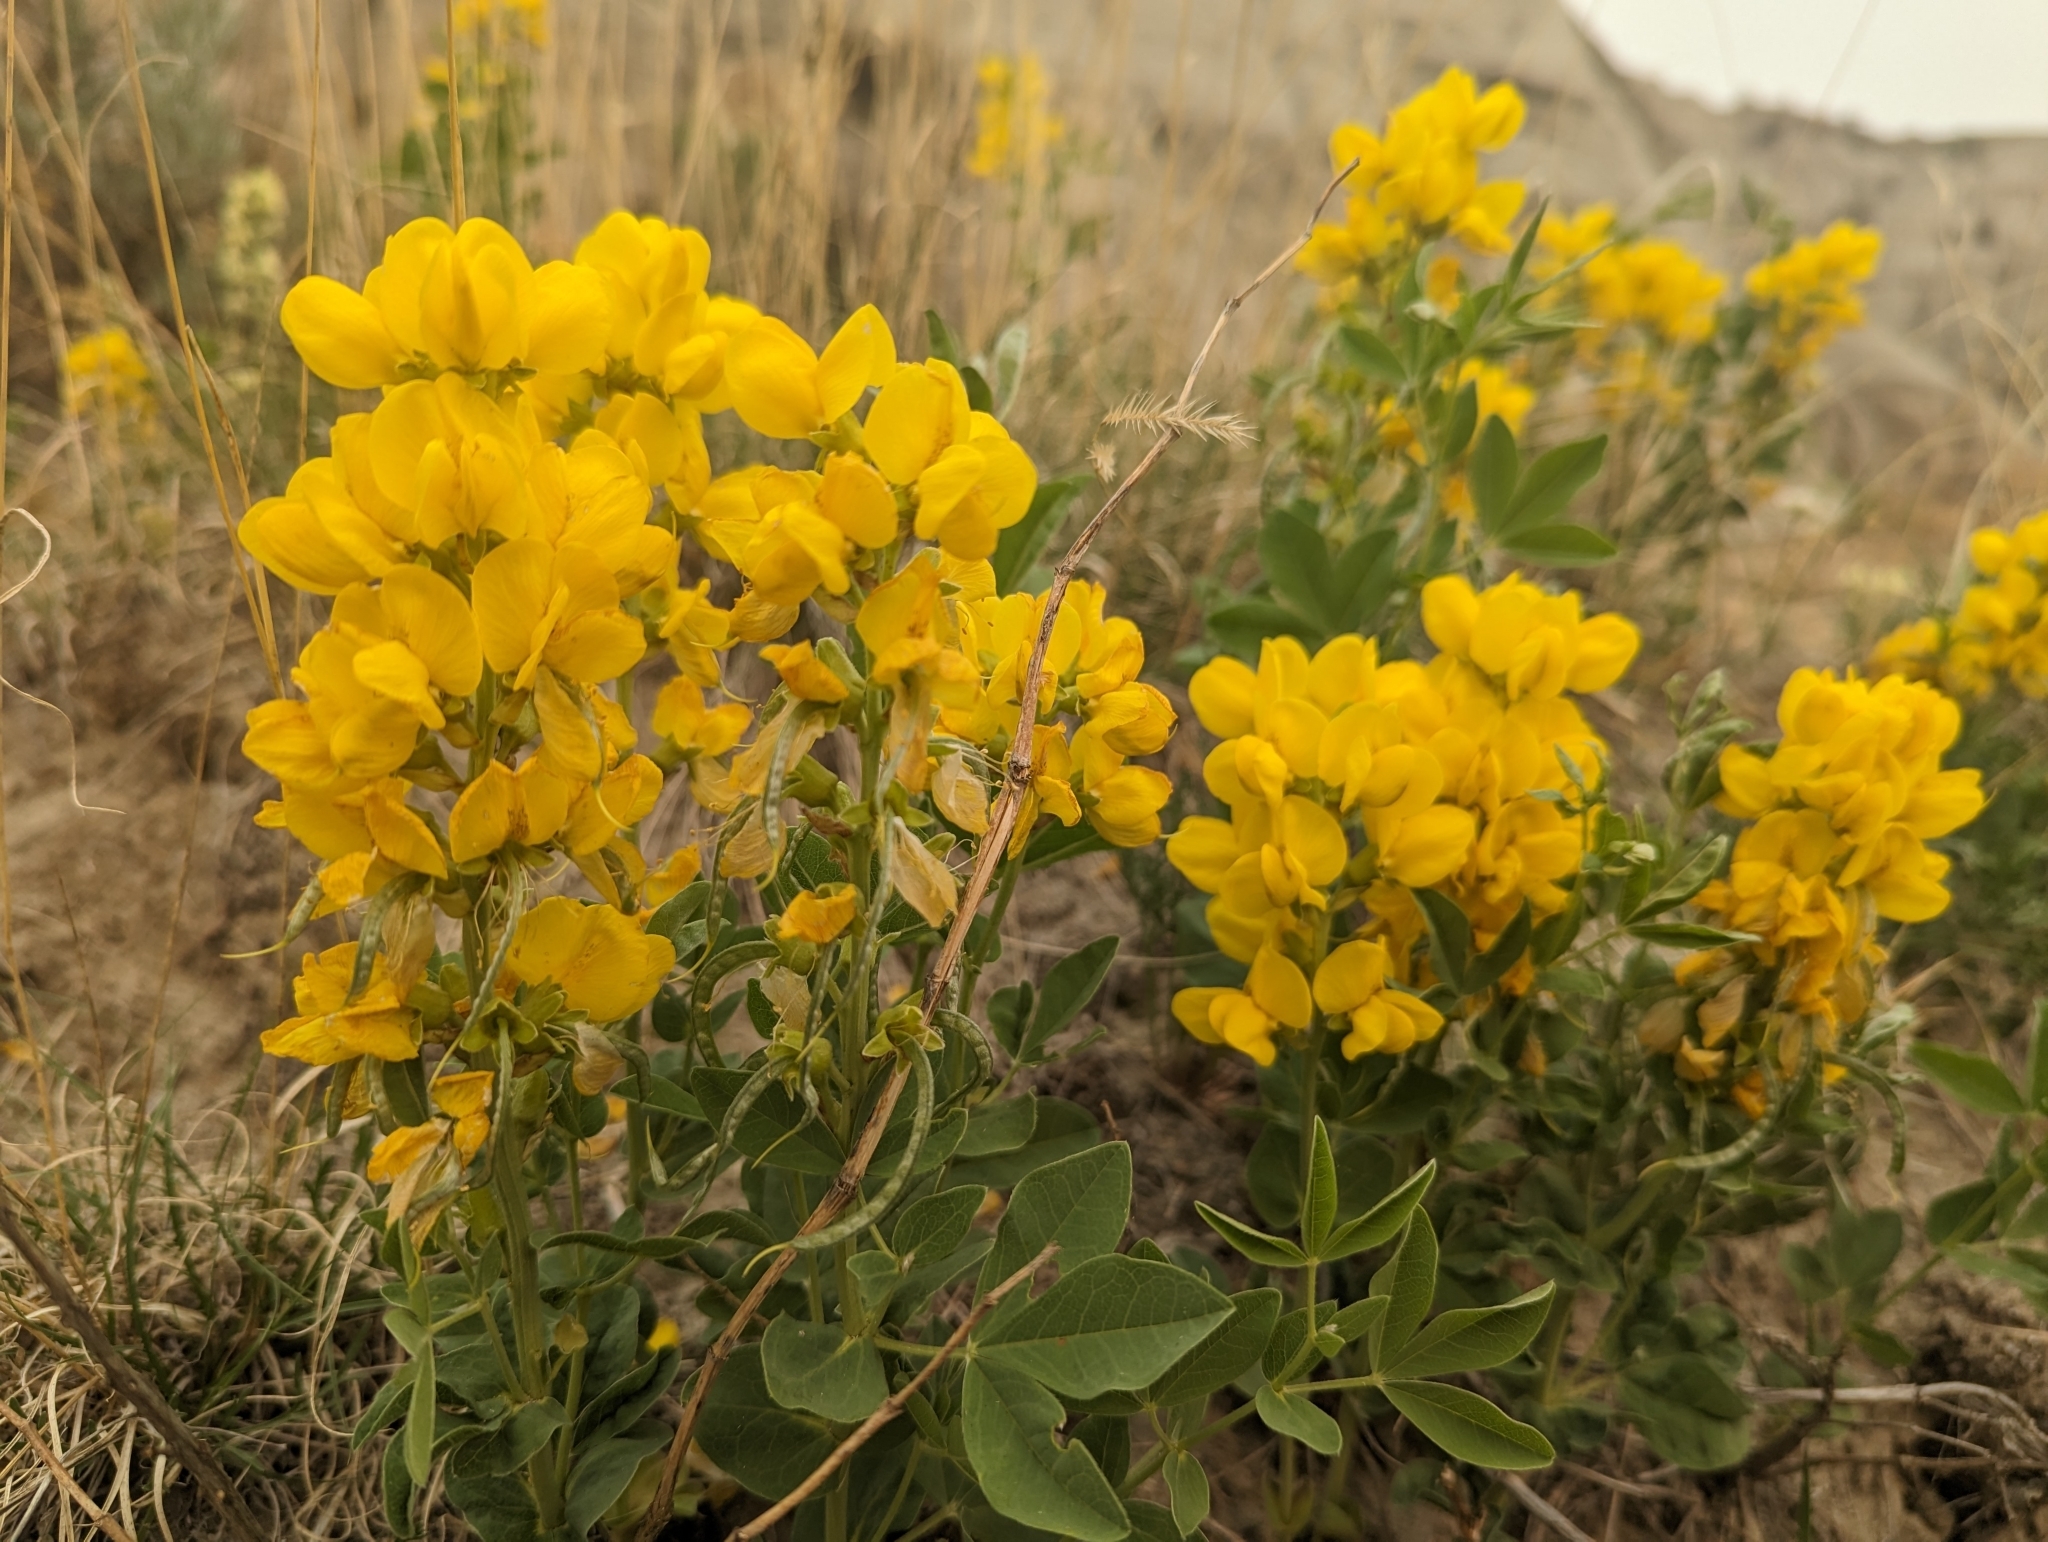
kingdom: Plantae
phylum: Tracheophyta
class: Magnoliopsida
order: Fabales
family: Fabaceae
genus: Thermopsis
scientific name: Thermopsis rhombifolia
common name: Circle-pod-pea
